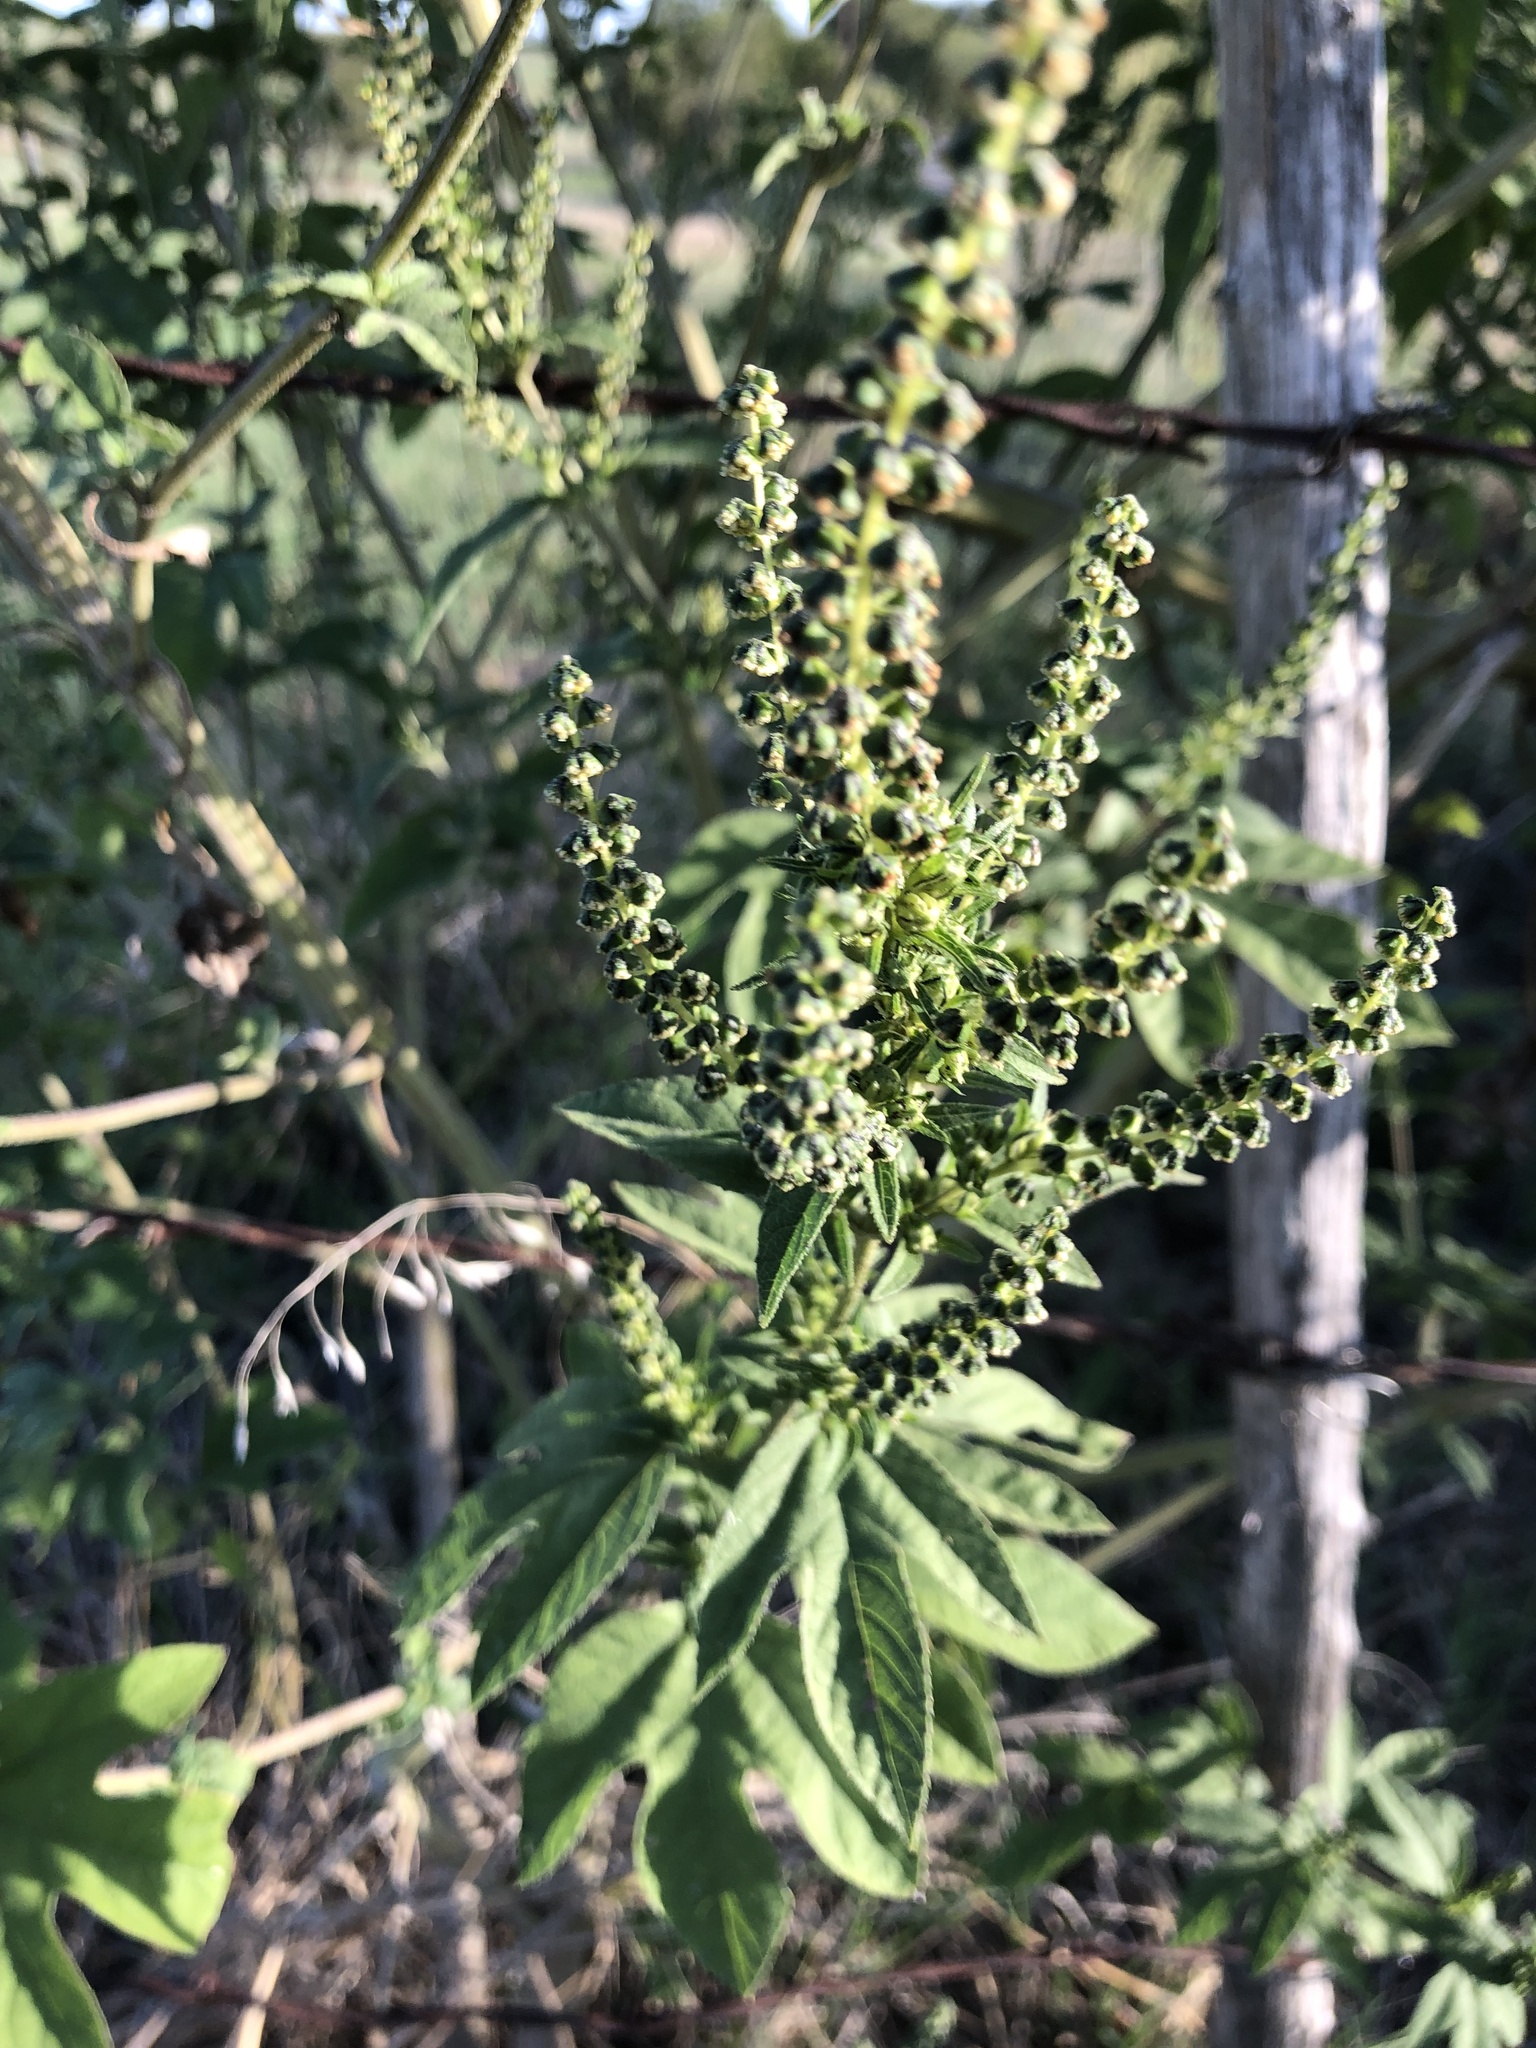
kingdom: Plantae
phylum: Tracheophyta
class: Magnoliopsida
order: Asterales
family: Asteraceae
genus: Ambrosia
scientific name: Ambrosia trifida
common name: Giant ragweed
